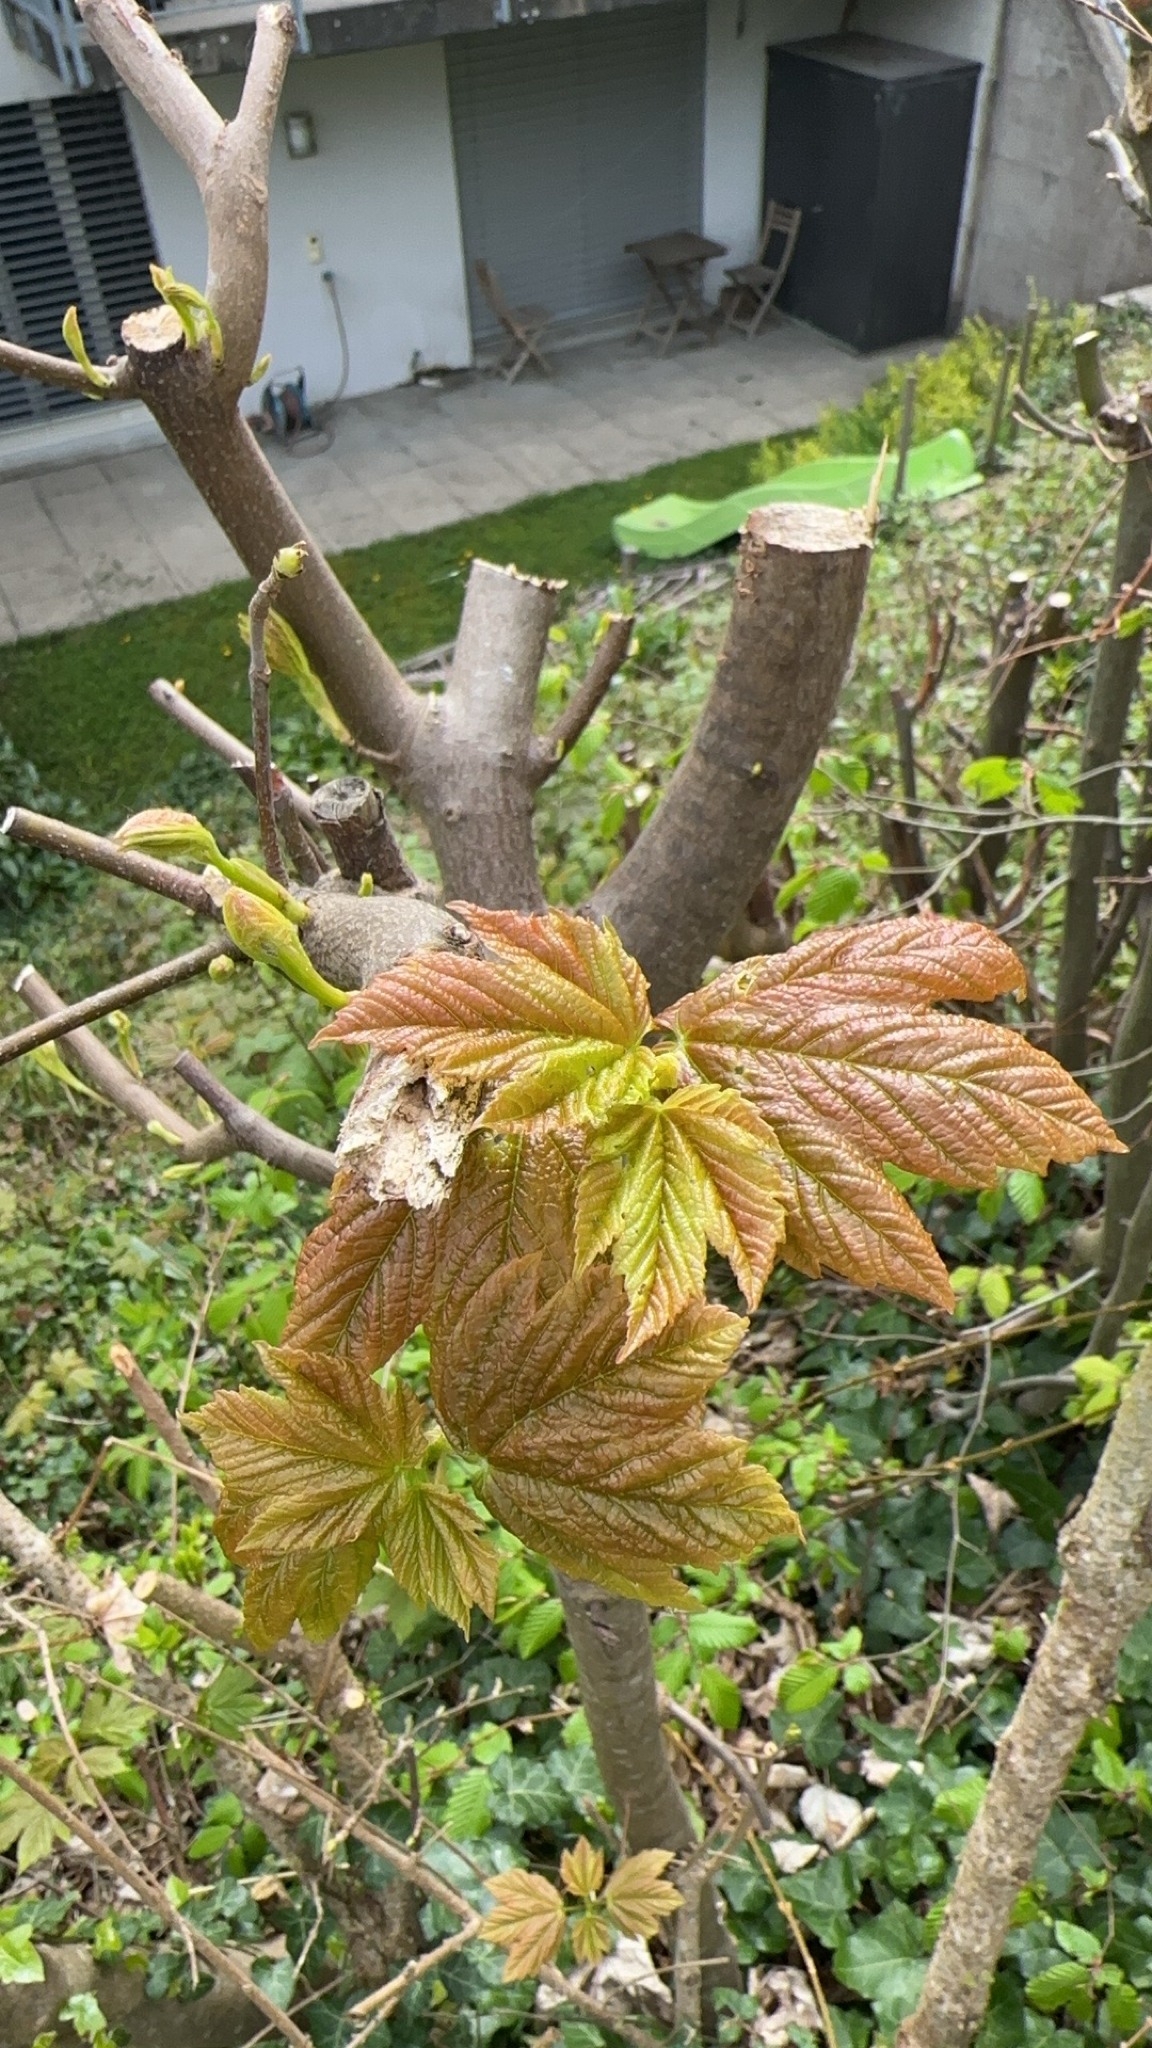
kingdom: Plantae
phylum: Tracheophyta
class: Magnoliopsida
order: Sapindales
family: Sapindaceae
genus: Acer
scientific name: Acer pseudoplatanus
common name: Sycamore
